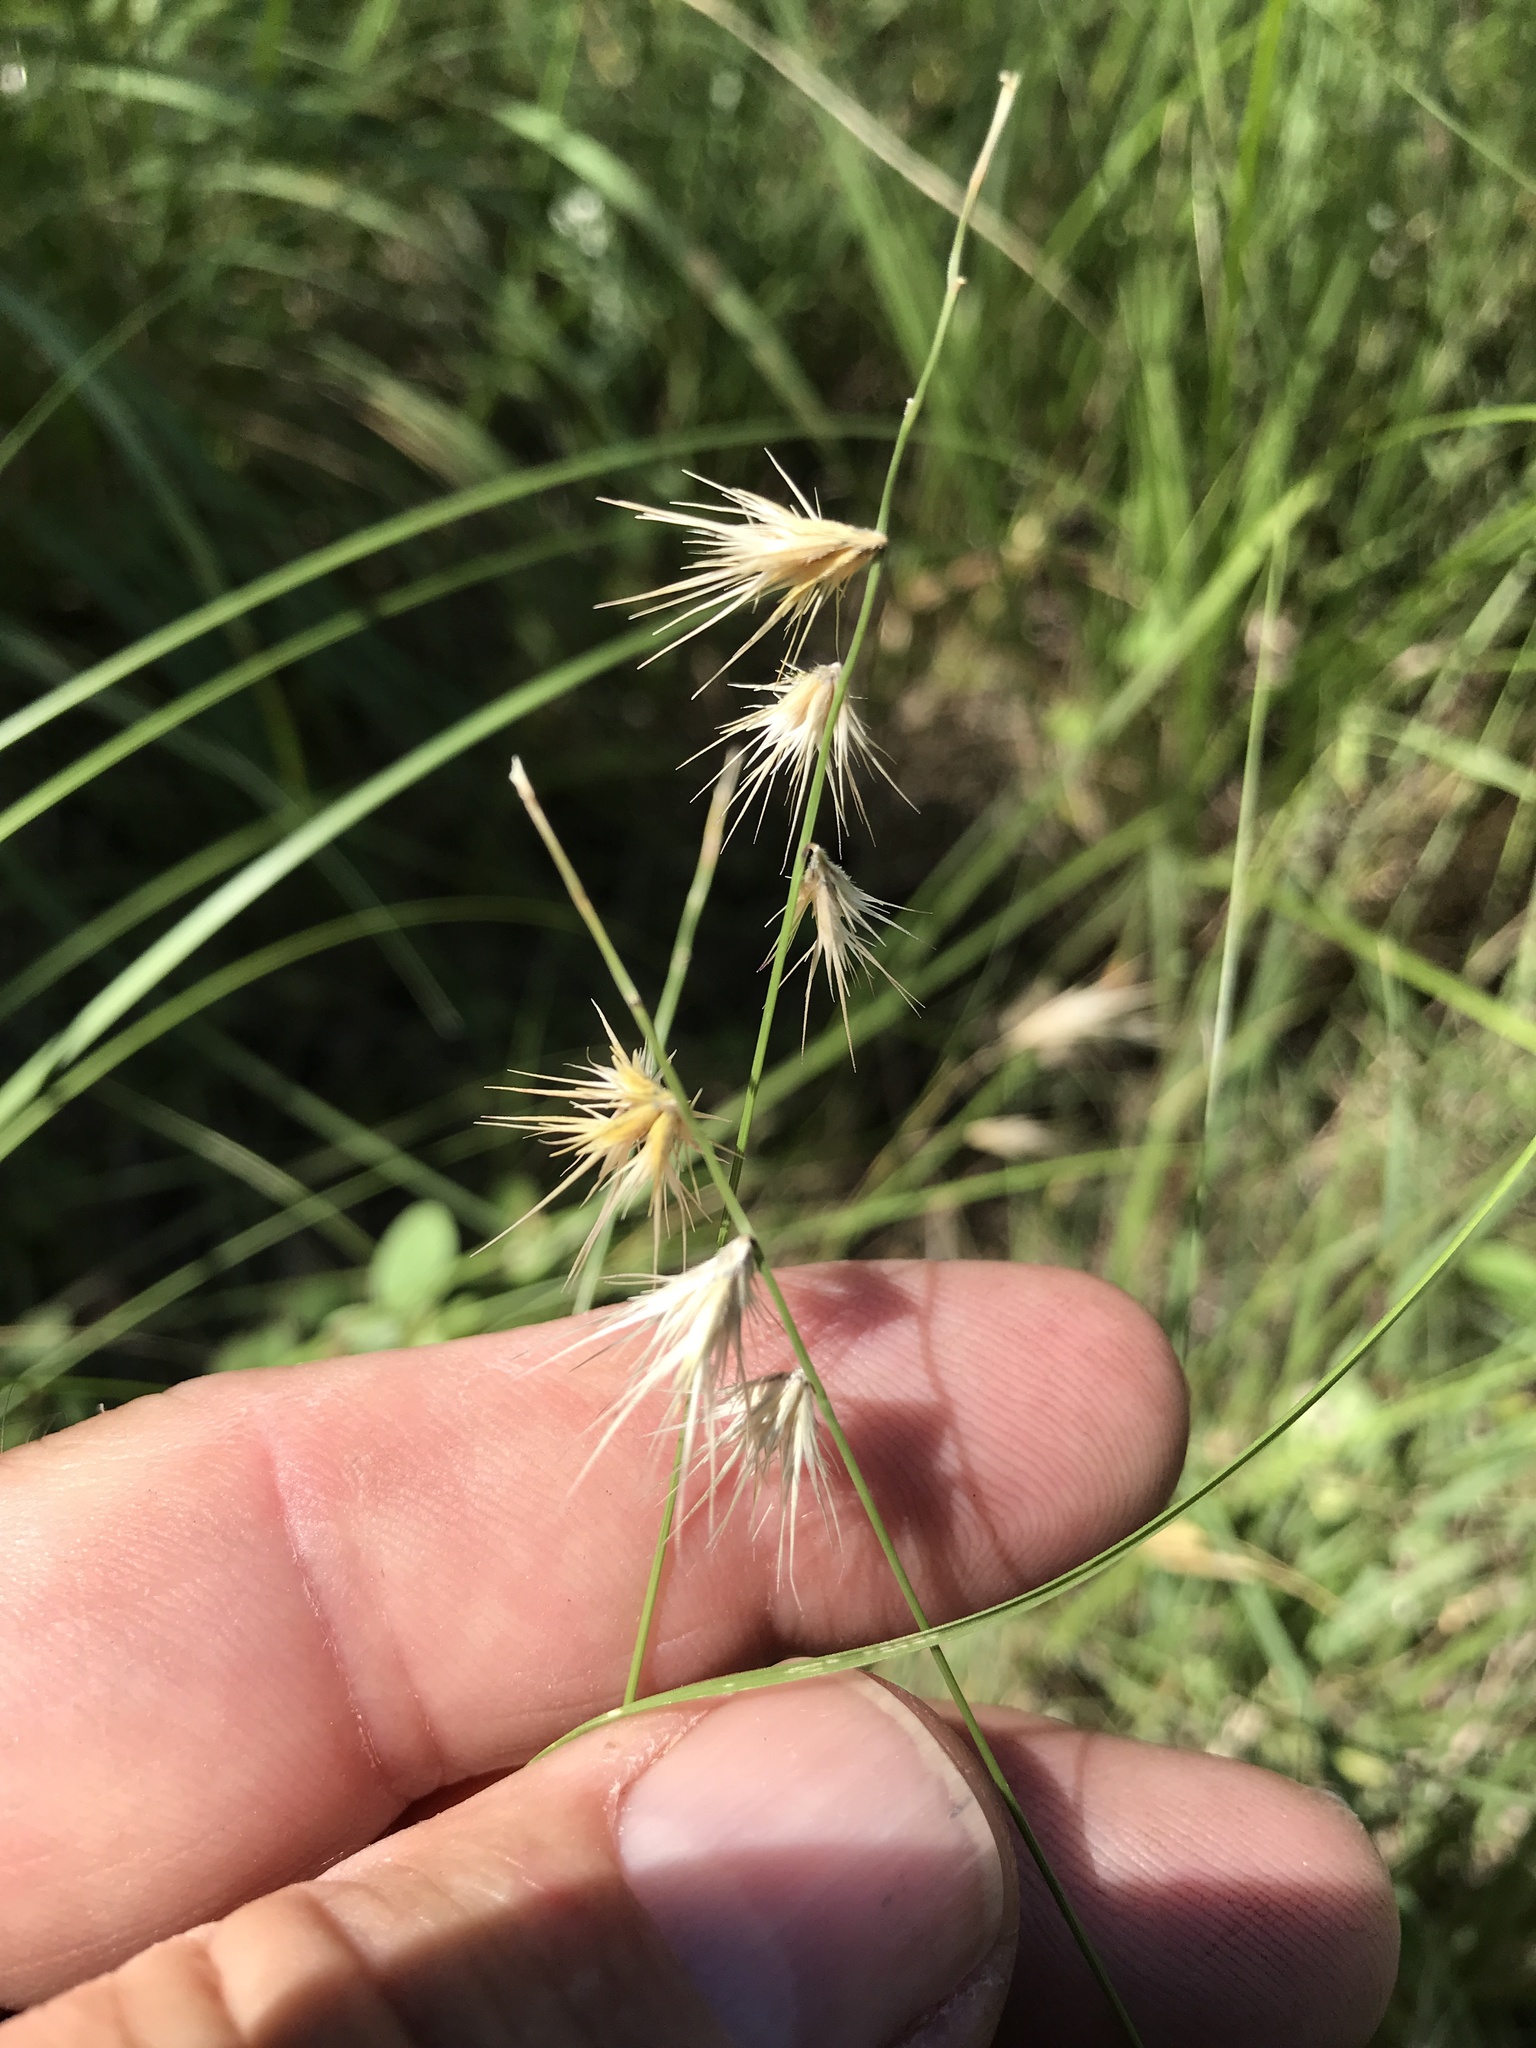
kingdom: Plantae
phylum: Tracheophyta
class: Liliopsida
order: Poales
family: Poaceae
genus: Bouteloua
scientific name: Bouteloua rigidiseta
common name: Texas grama
